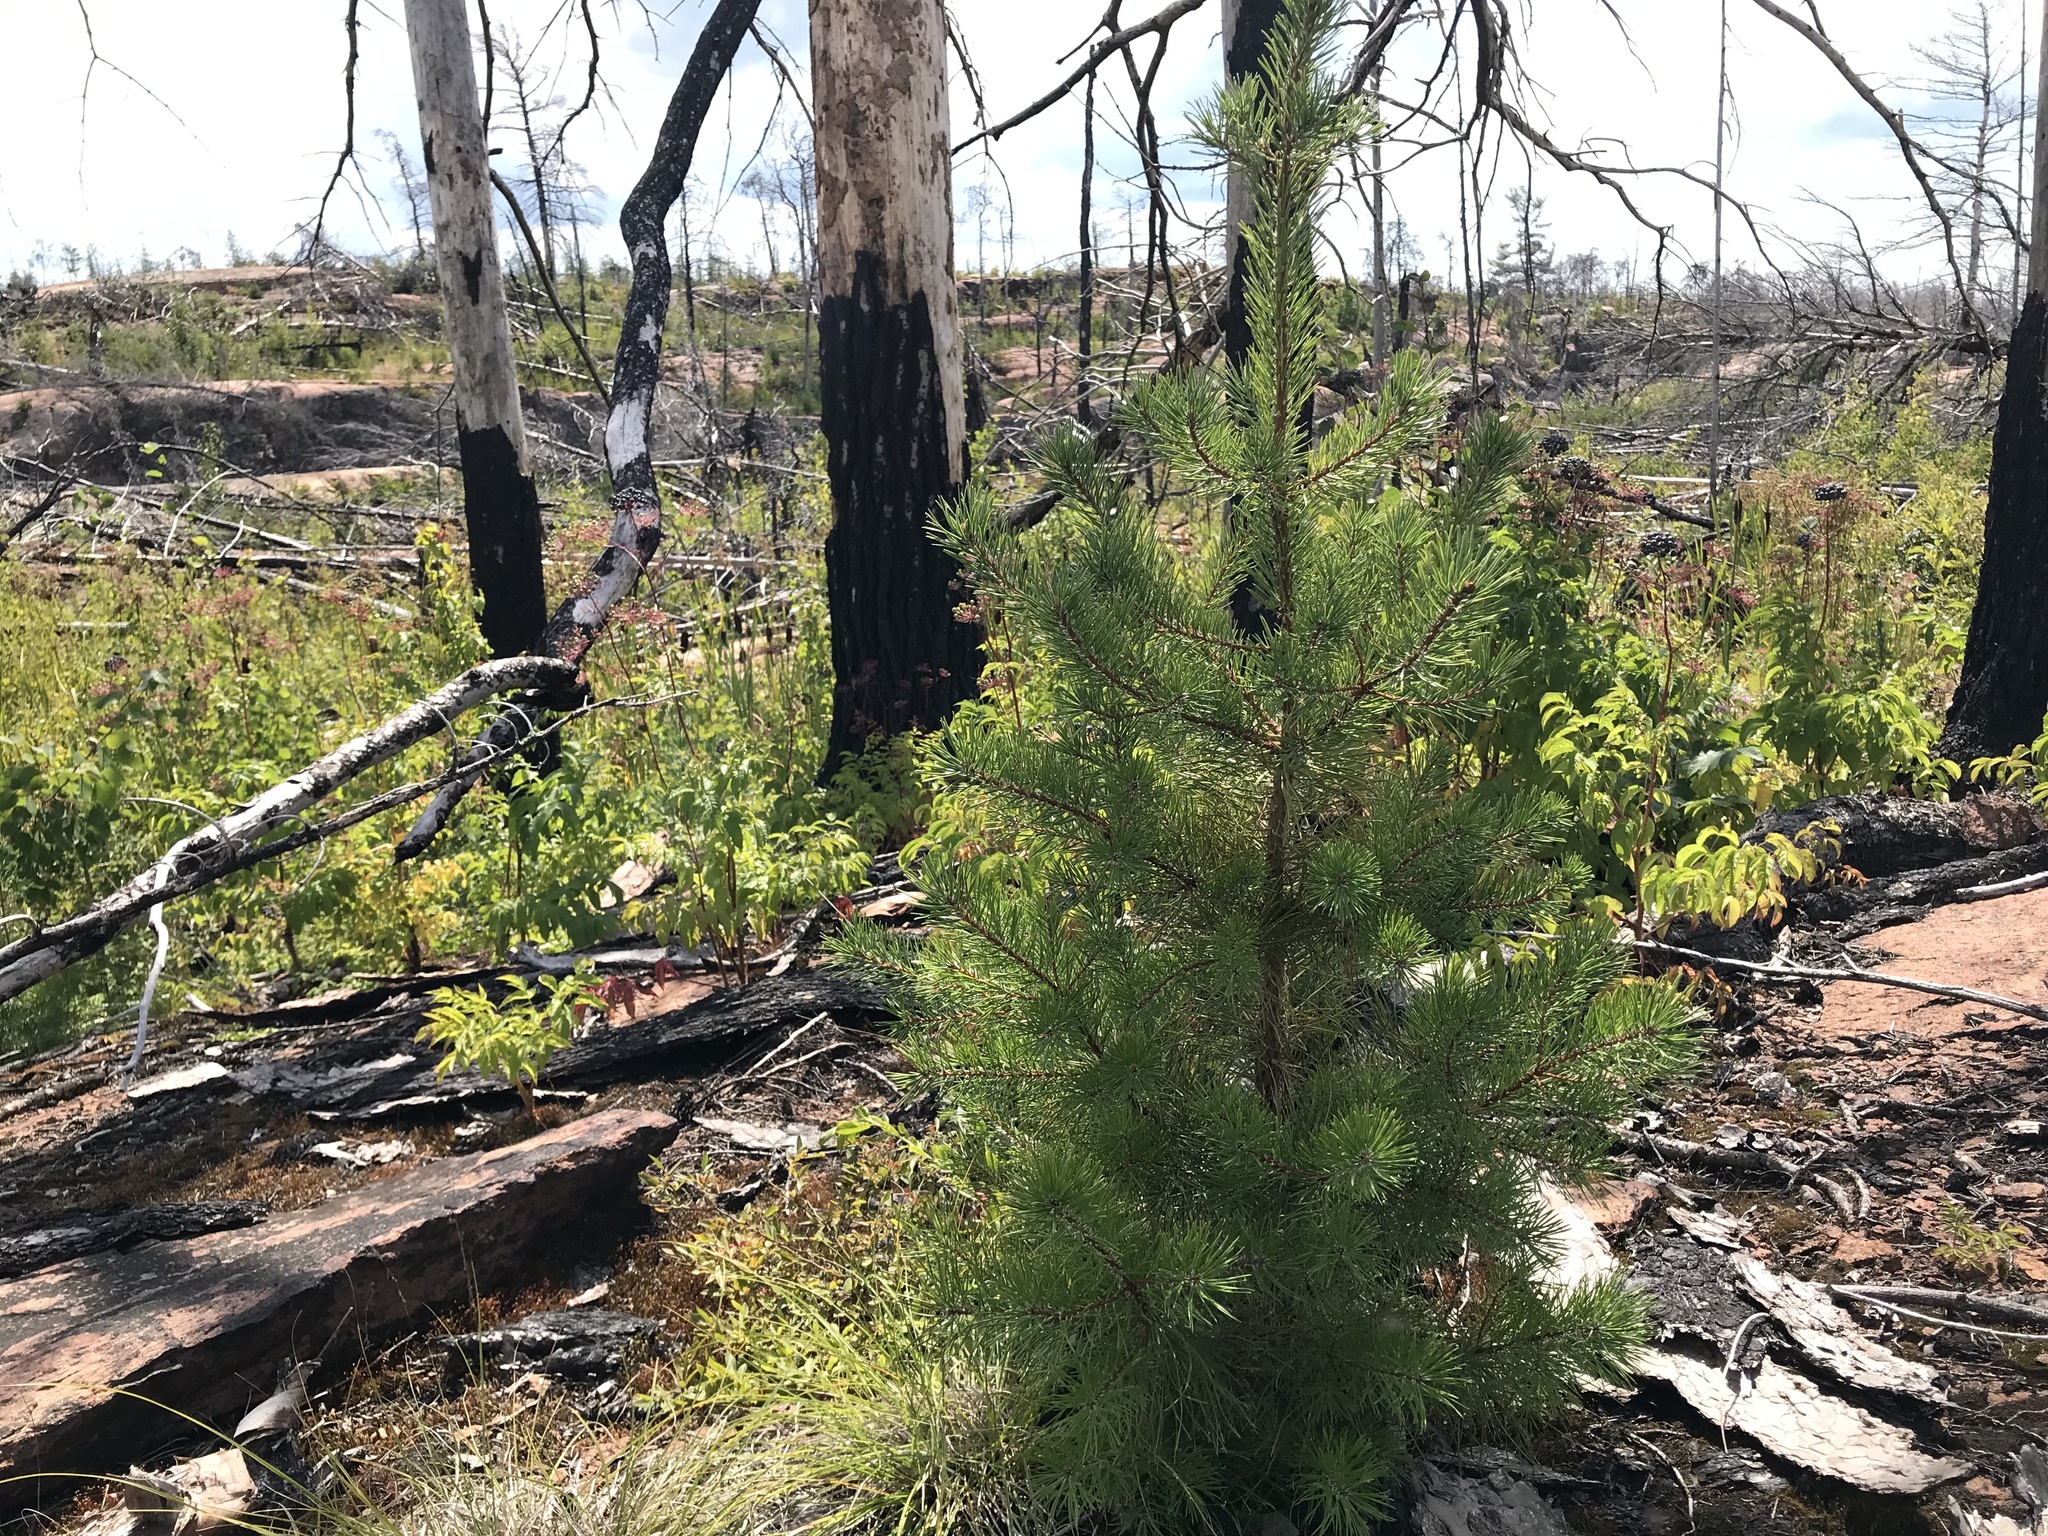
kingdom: Plantae
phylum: Tracheophyta
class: Pinopsida
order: Pinales
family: Pinaceae
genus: Pinus
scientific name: Pinus banksiana
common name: Jack pine
